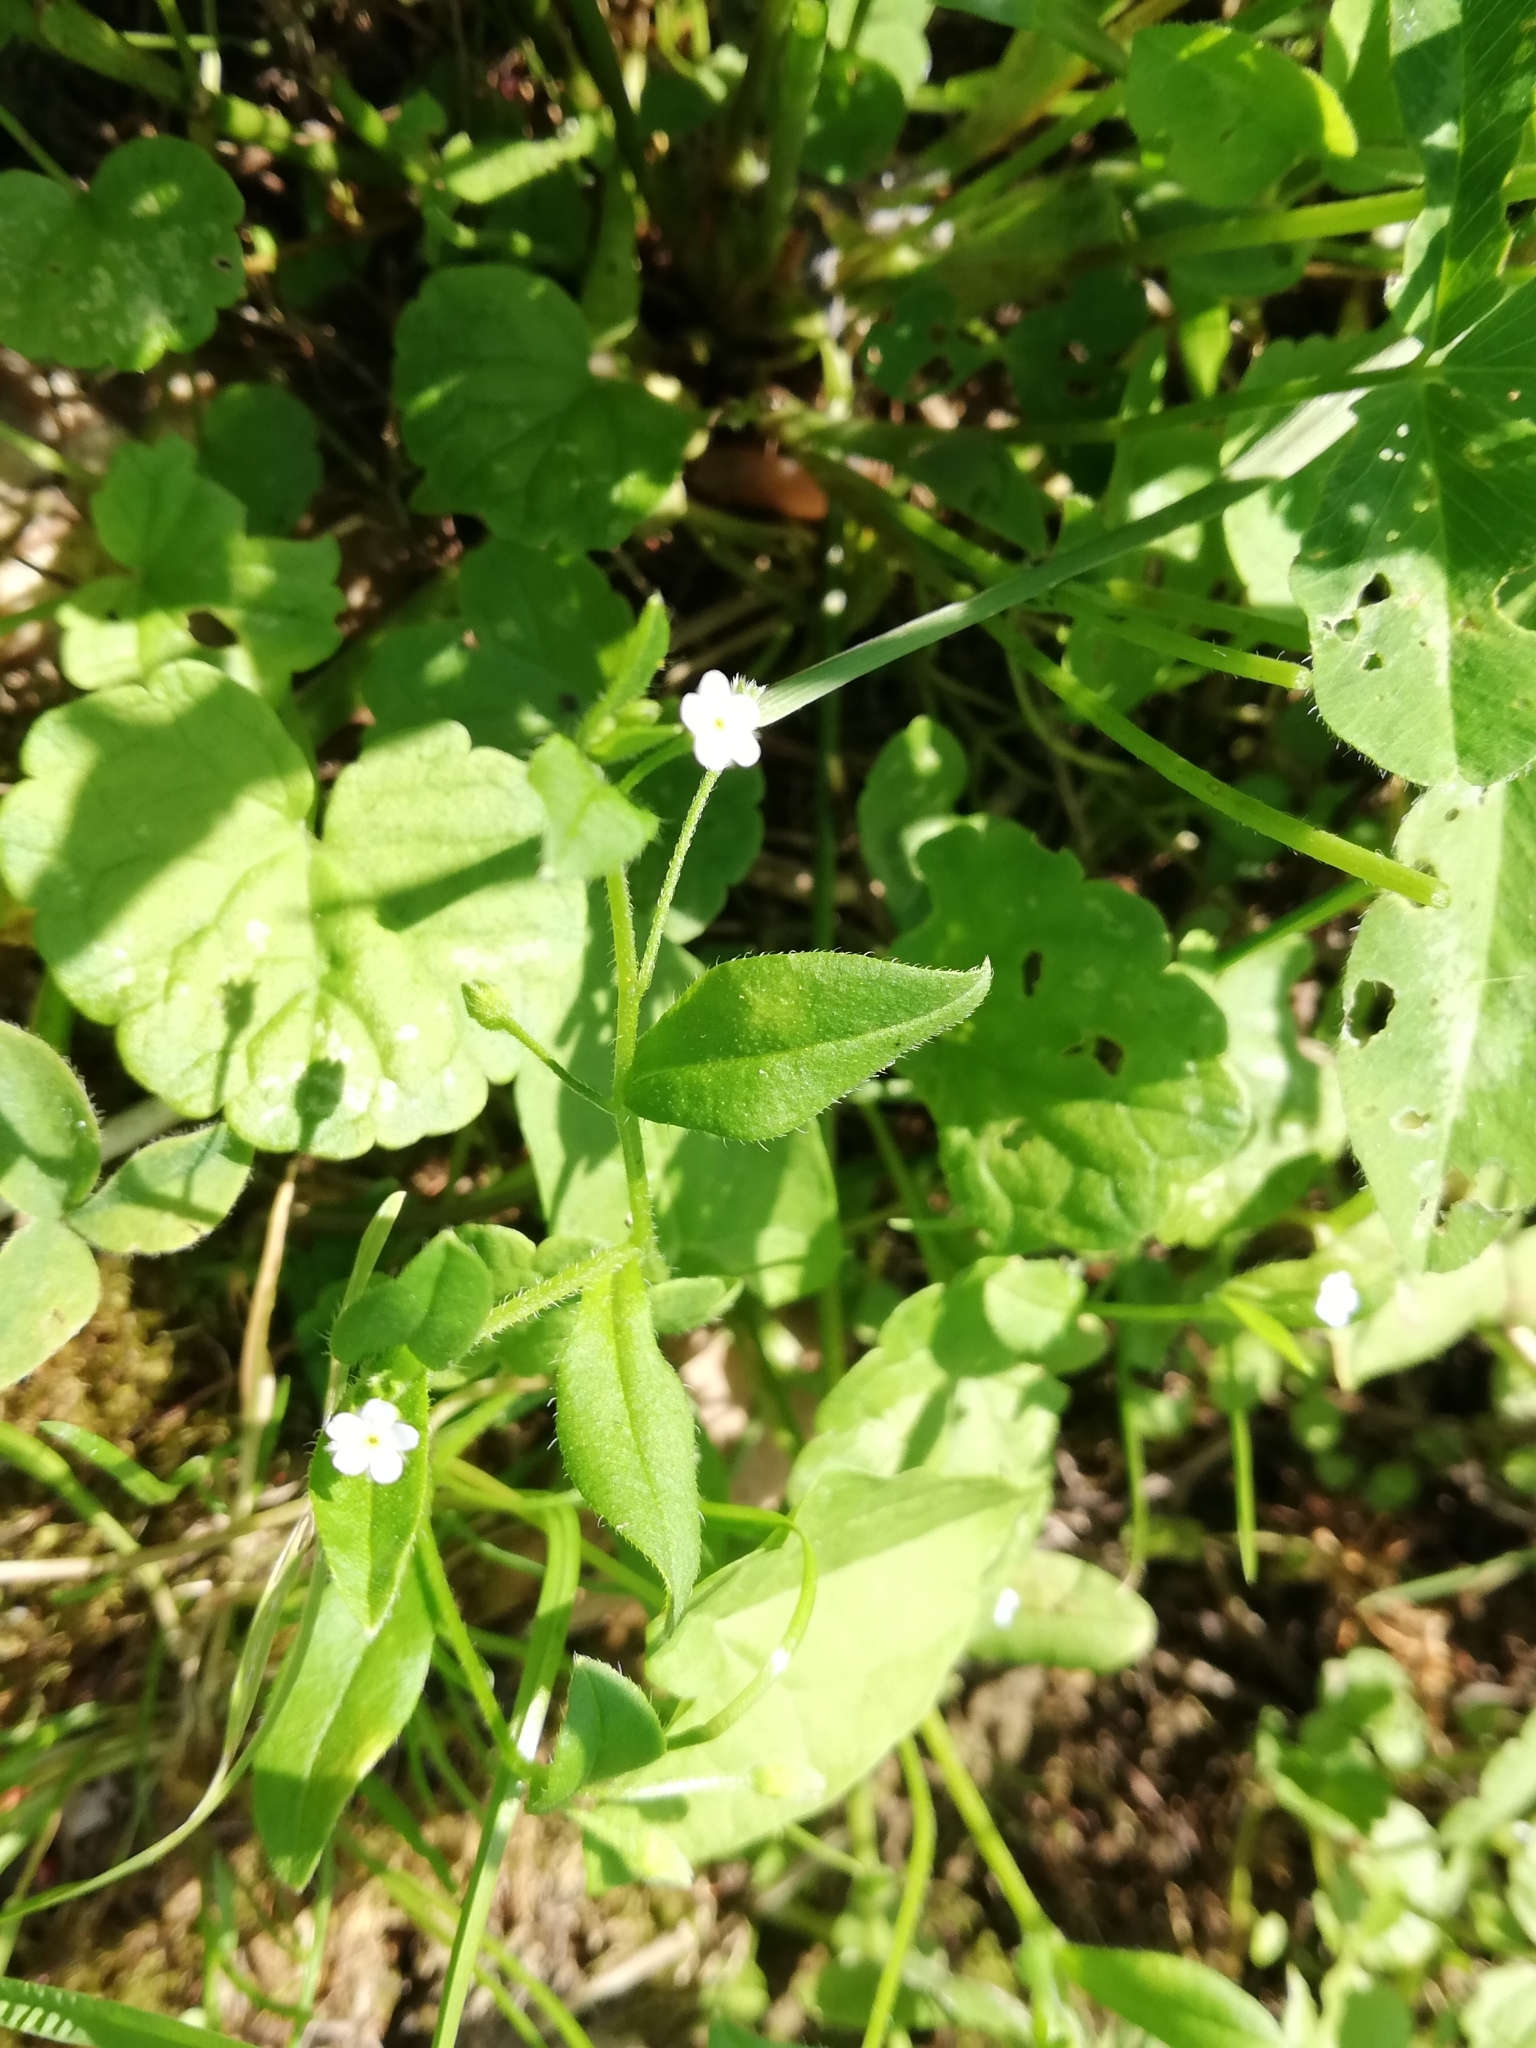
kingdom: Plantae
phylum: Tracheophyta
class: Magnoliopsida
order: Boraginales
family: Boraginaceae
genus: Myosotis
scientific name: Myosotis sparsiflora
